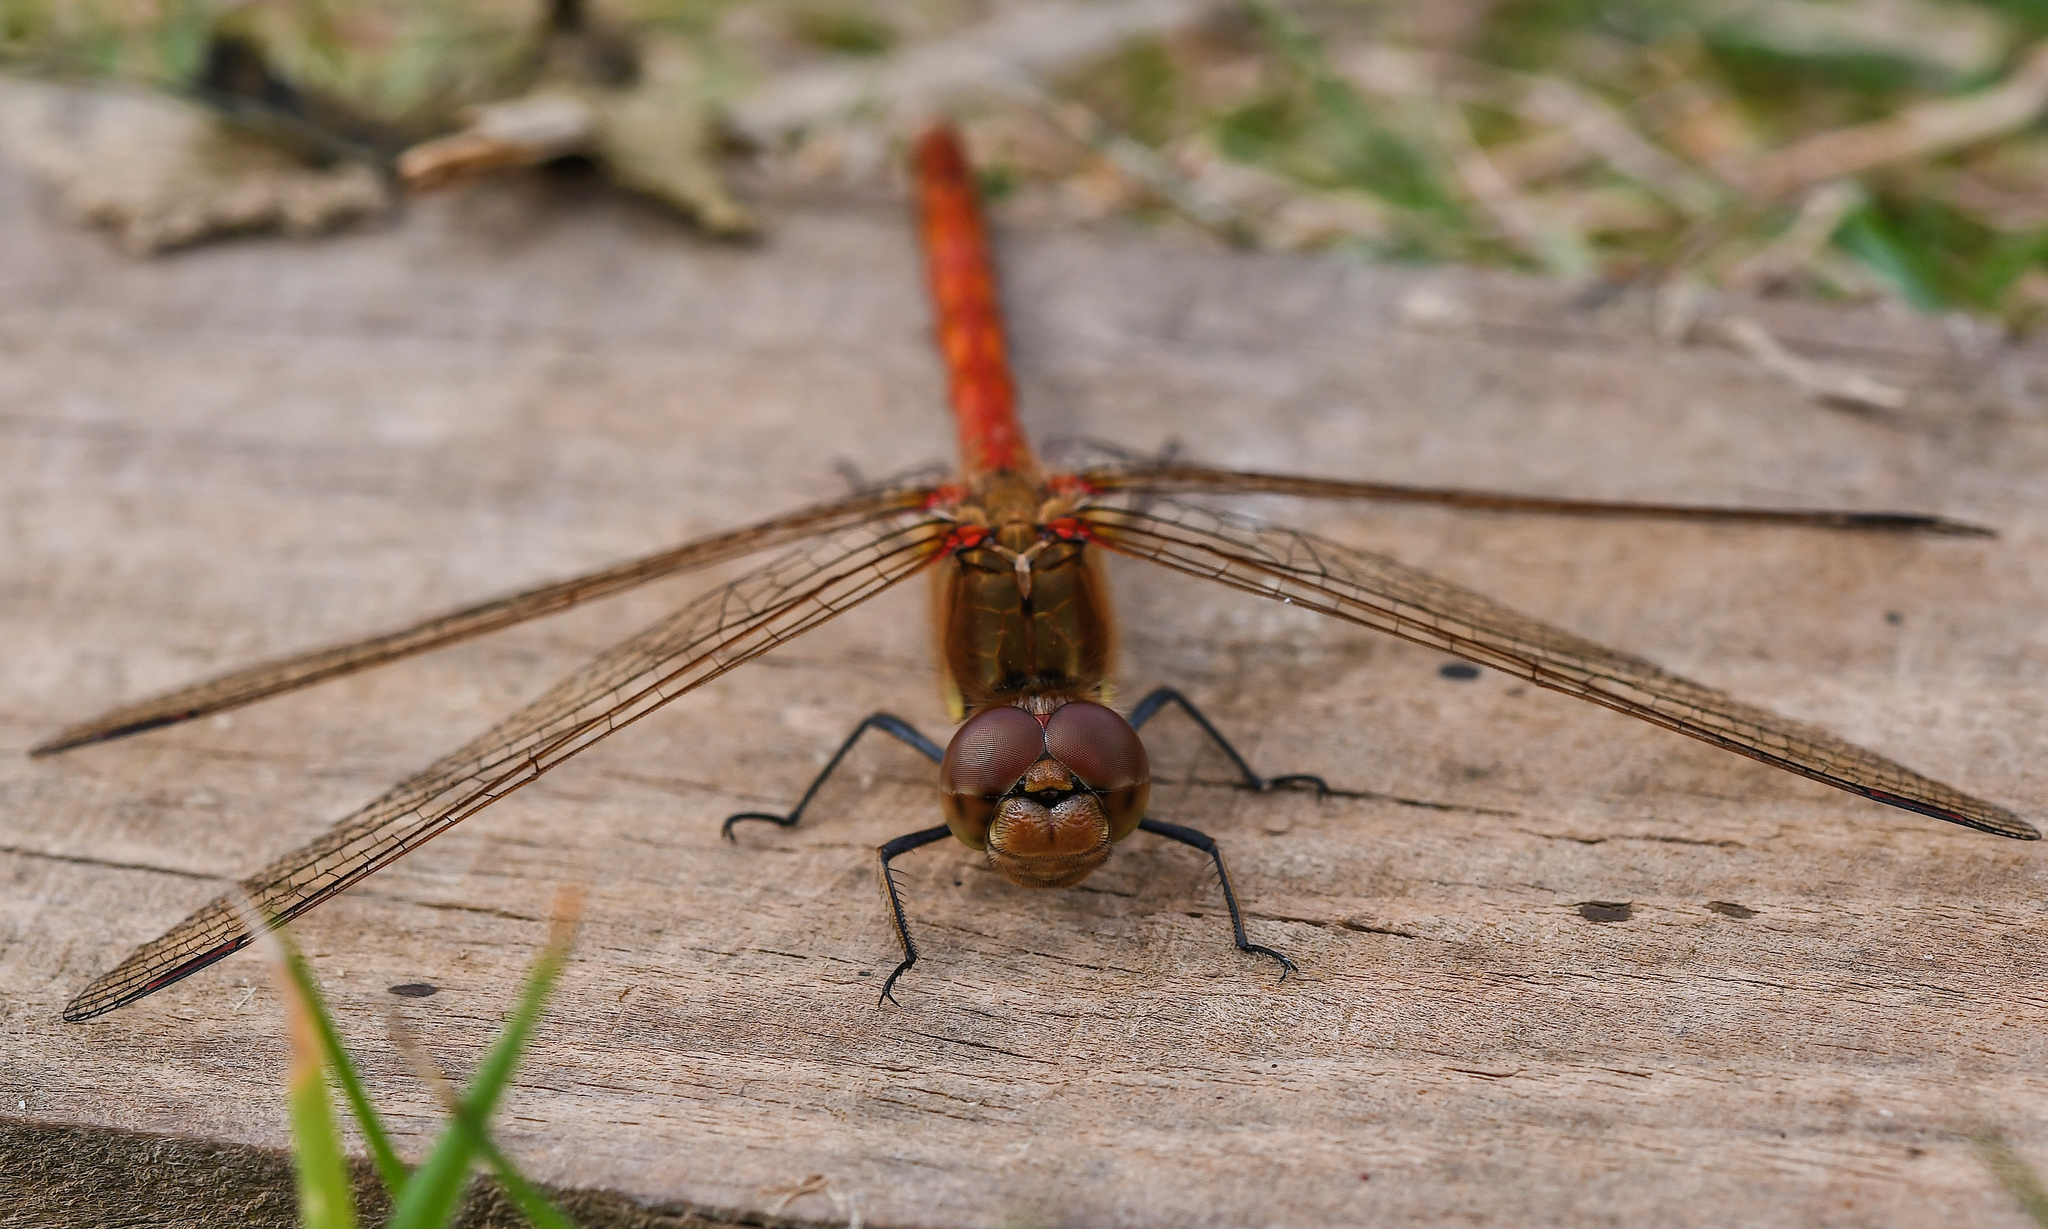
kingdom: Animalia
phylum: Arthropoda
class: Insecta
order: Odonata
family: Libellulidae
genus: Sympetrum
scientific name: Sympetrum striolatum
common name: Common darter
